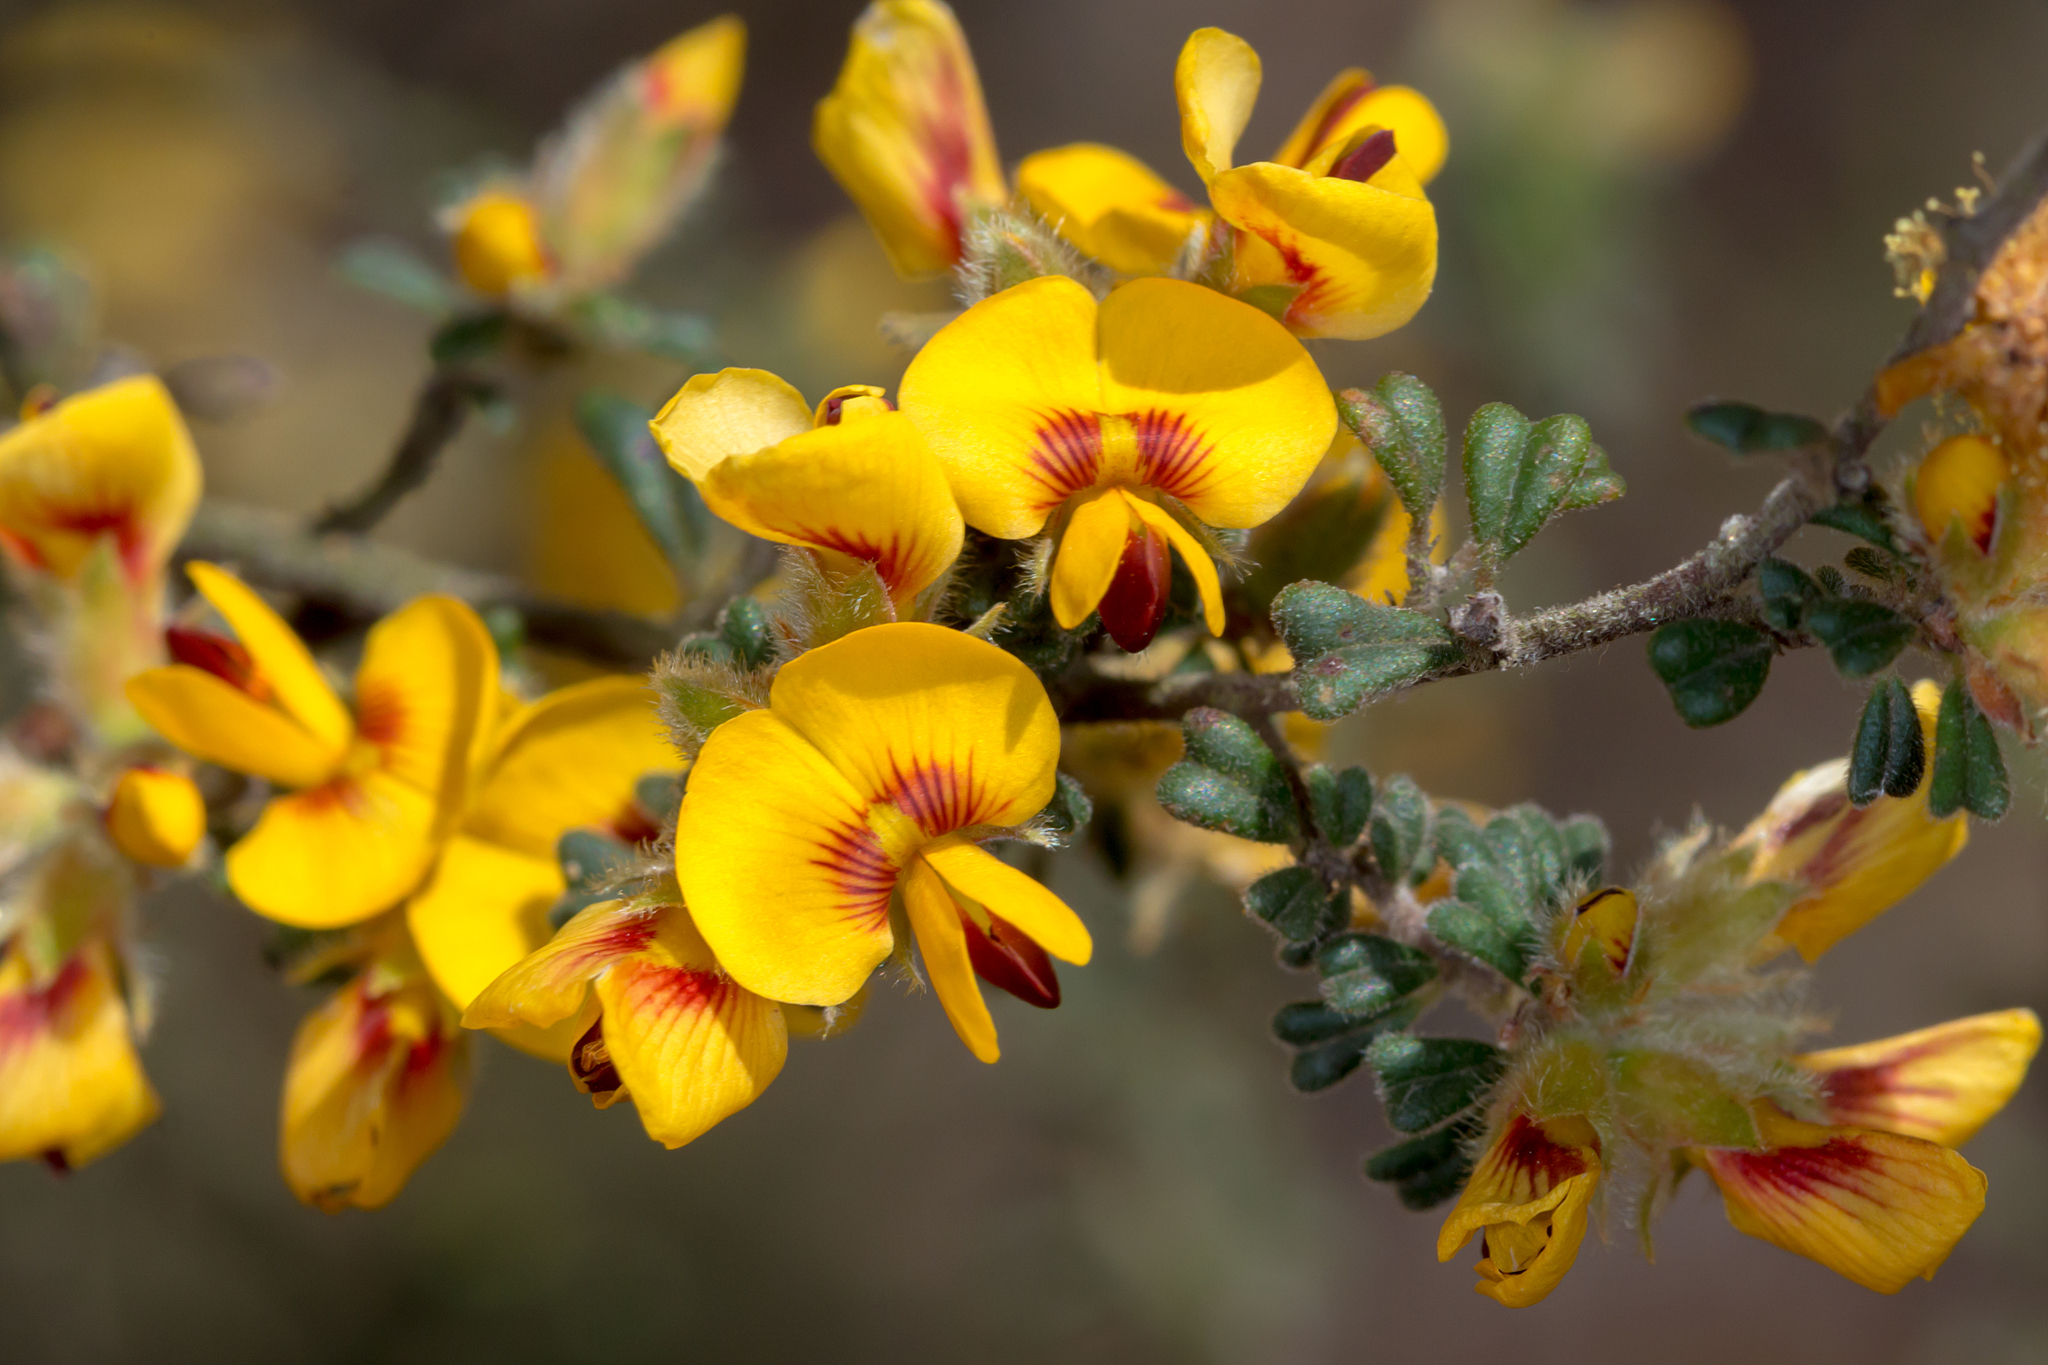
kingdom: Plantae
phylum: Tracheophyta
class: Magnoliopsida
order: Fabales
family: Fabaceae
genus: Pultenaea
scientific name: Pultenaea scabra
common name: Rough bush-pea
